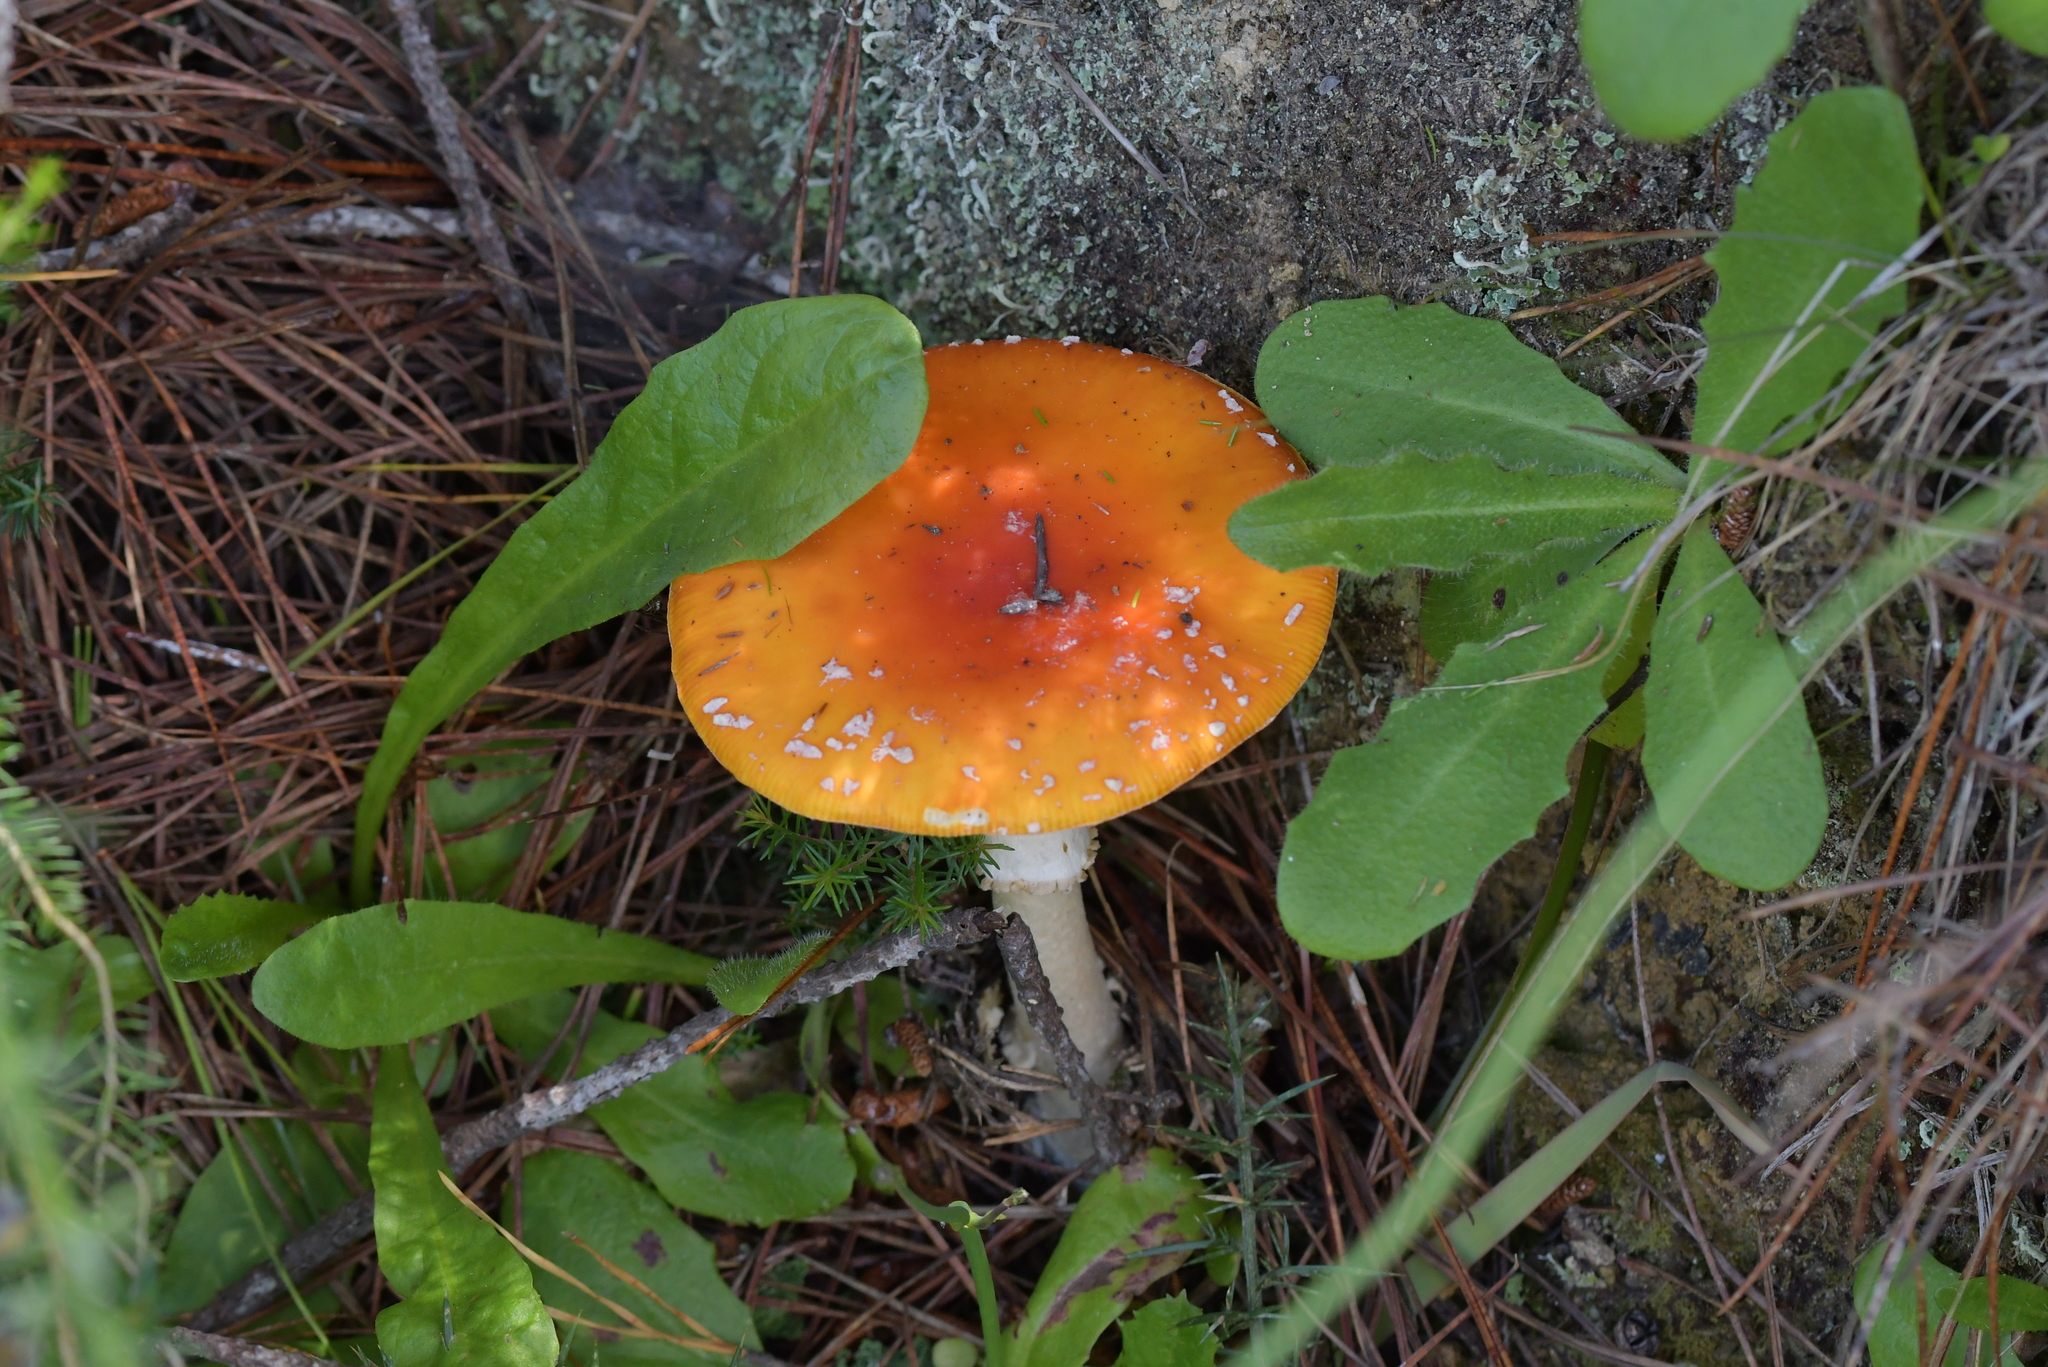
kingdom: Fungi
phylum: Basidiomycota
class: Agaricomycetes
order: Agaricales
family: Amanitaceae
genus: Amanita
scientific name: Amanita muscaria
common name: Fly agaric
